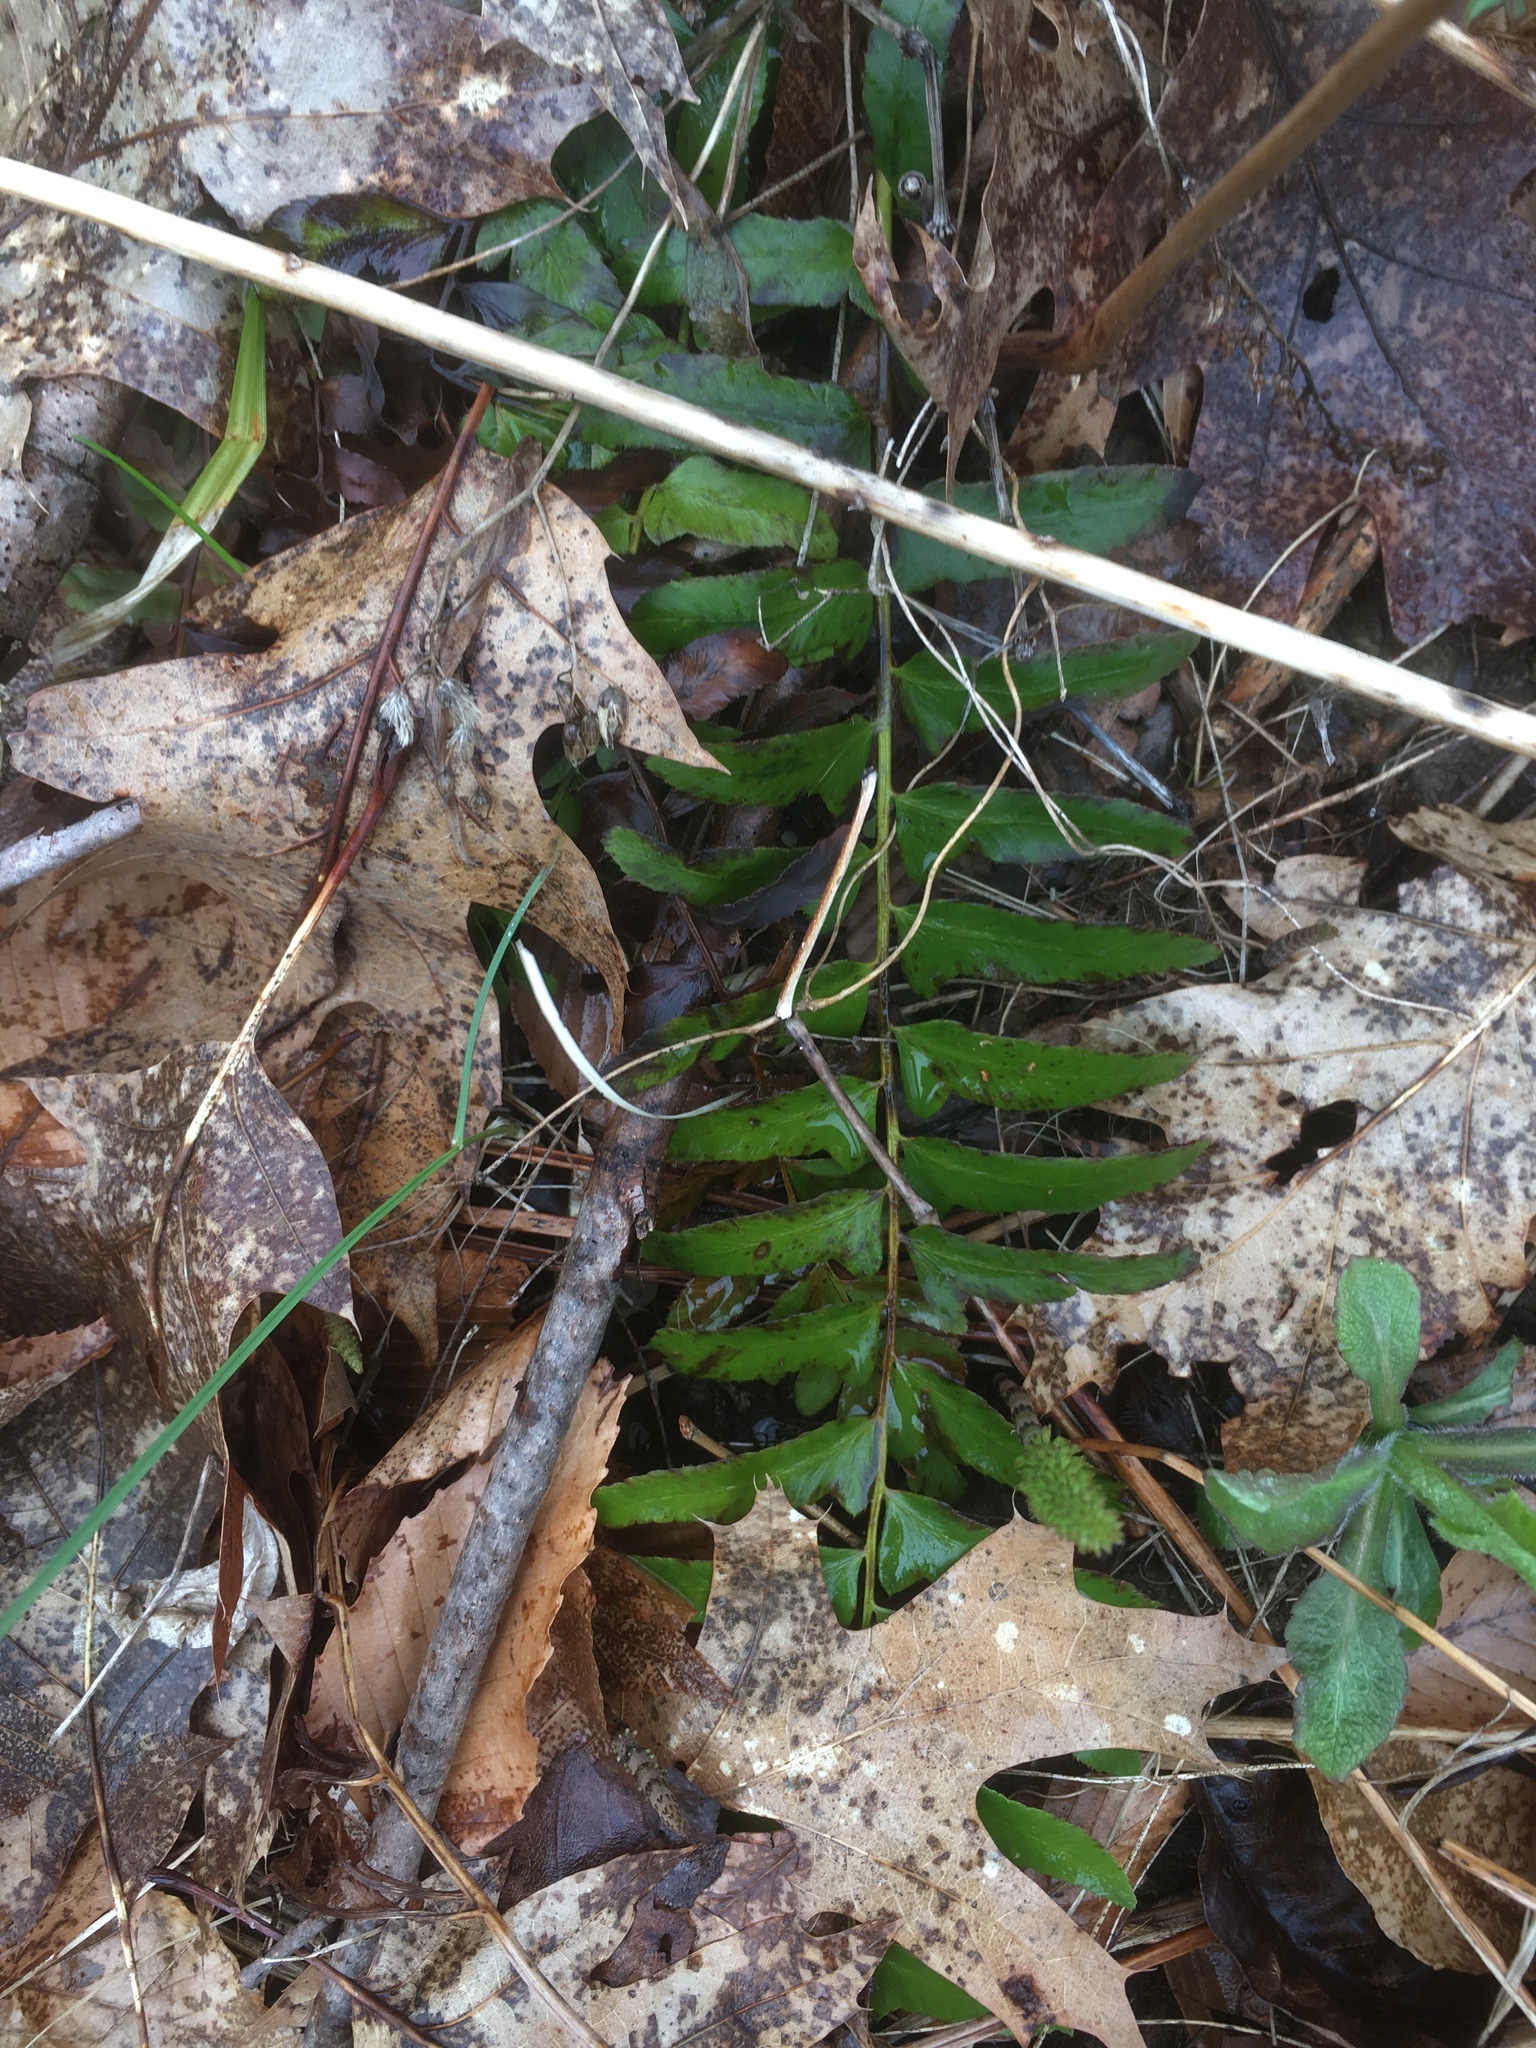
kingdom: Plantae
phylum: Tracheophyta
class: Polypodiopsida
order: Polypodiales
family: Dryopteridaceae
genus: Polystichum
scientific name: Polystichum acrostichoides
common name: Christmas fern
